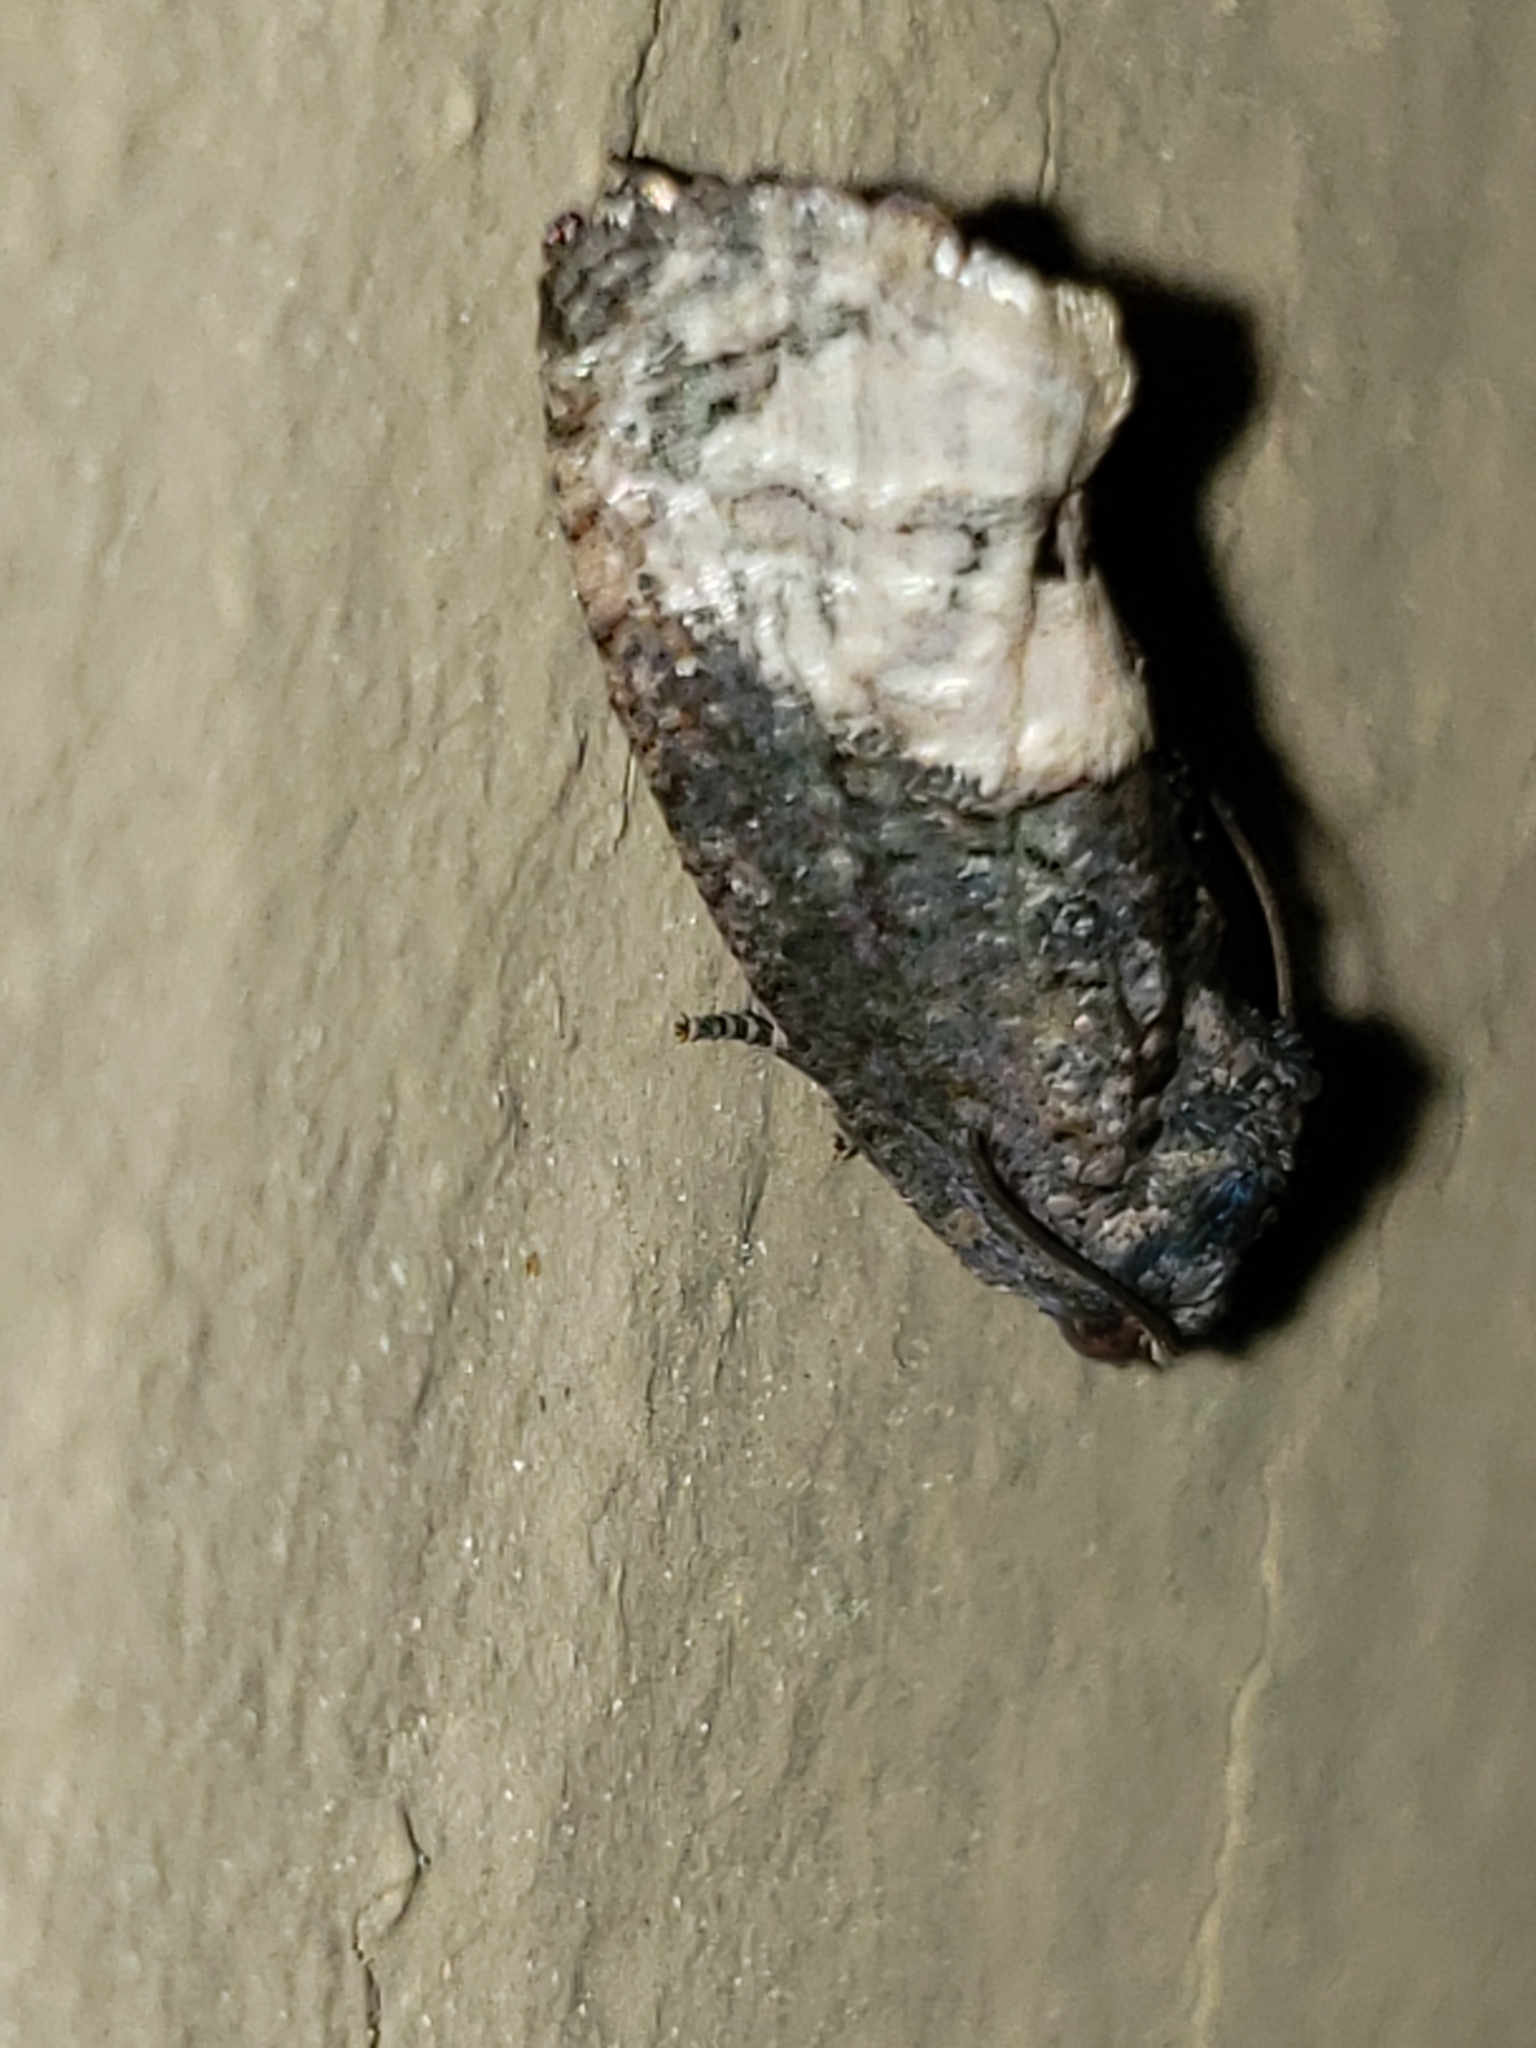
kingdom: Animalia
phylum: Arthropoda
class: Insecta
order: Lepidoptera
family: Tortricidae
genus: Ecdytolopha
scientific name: Ecdytolopha insiticiana
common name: Locust twig borer moth
